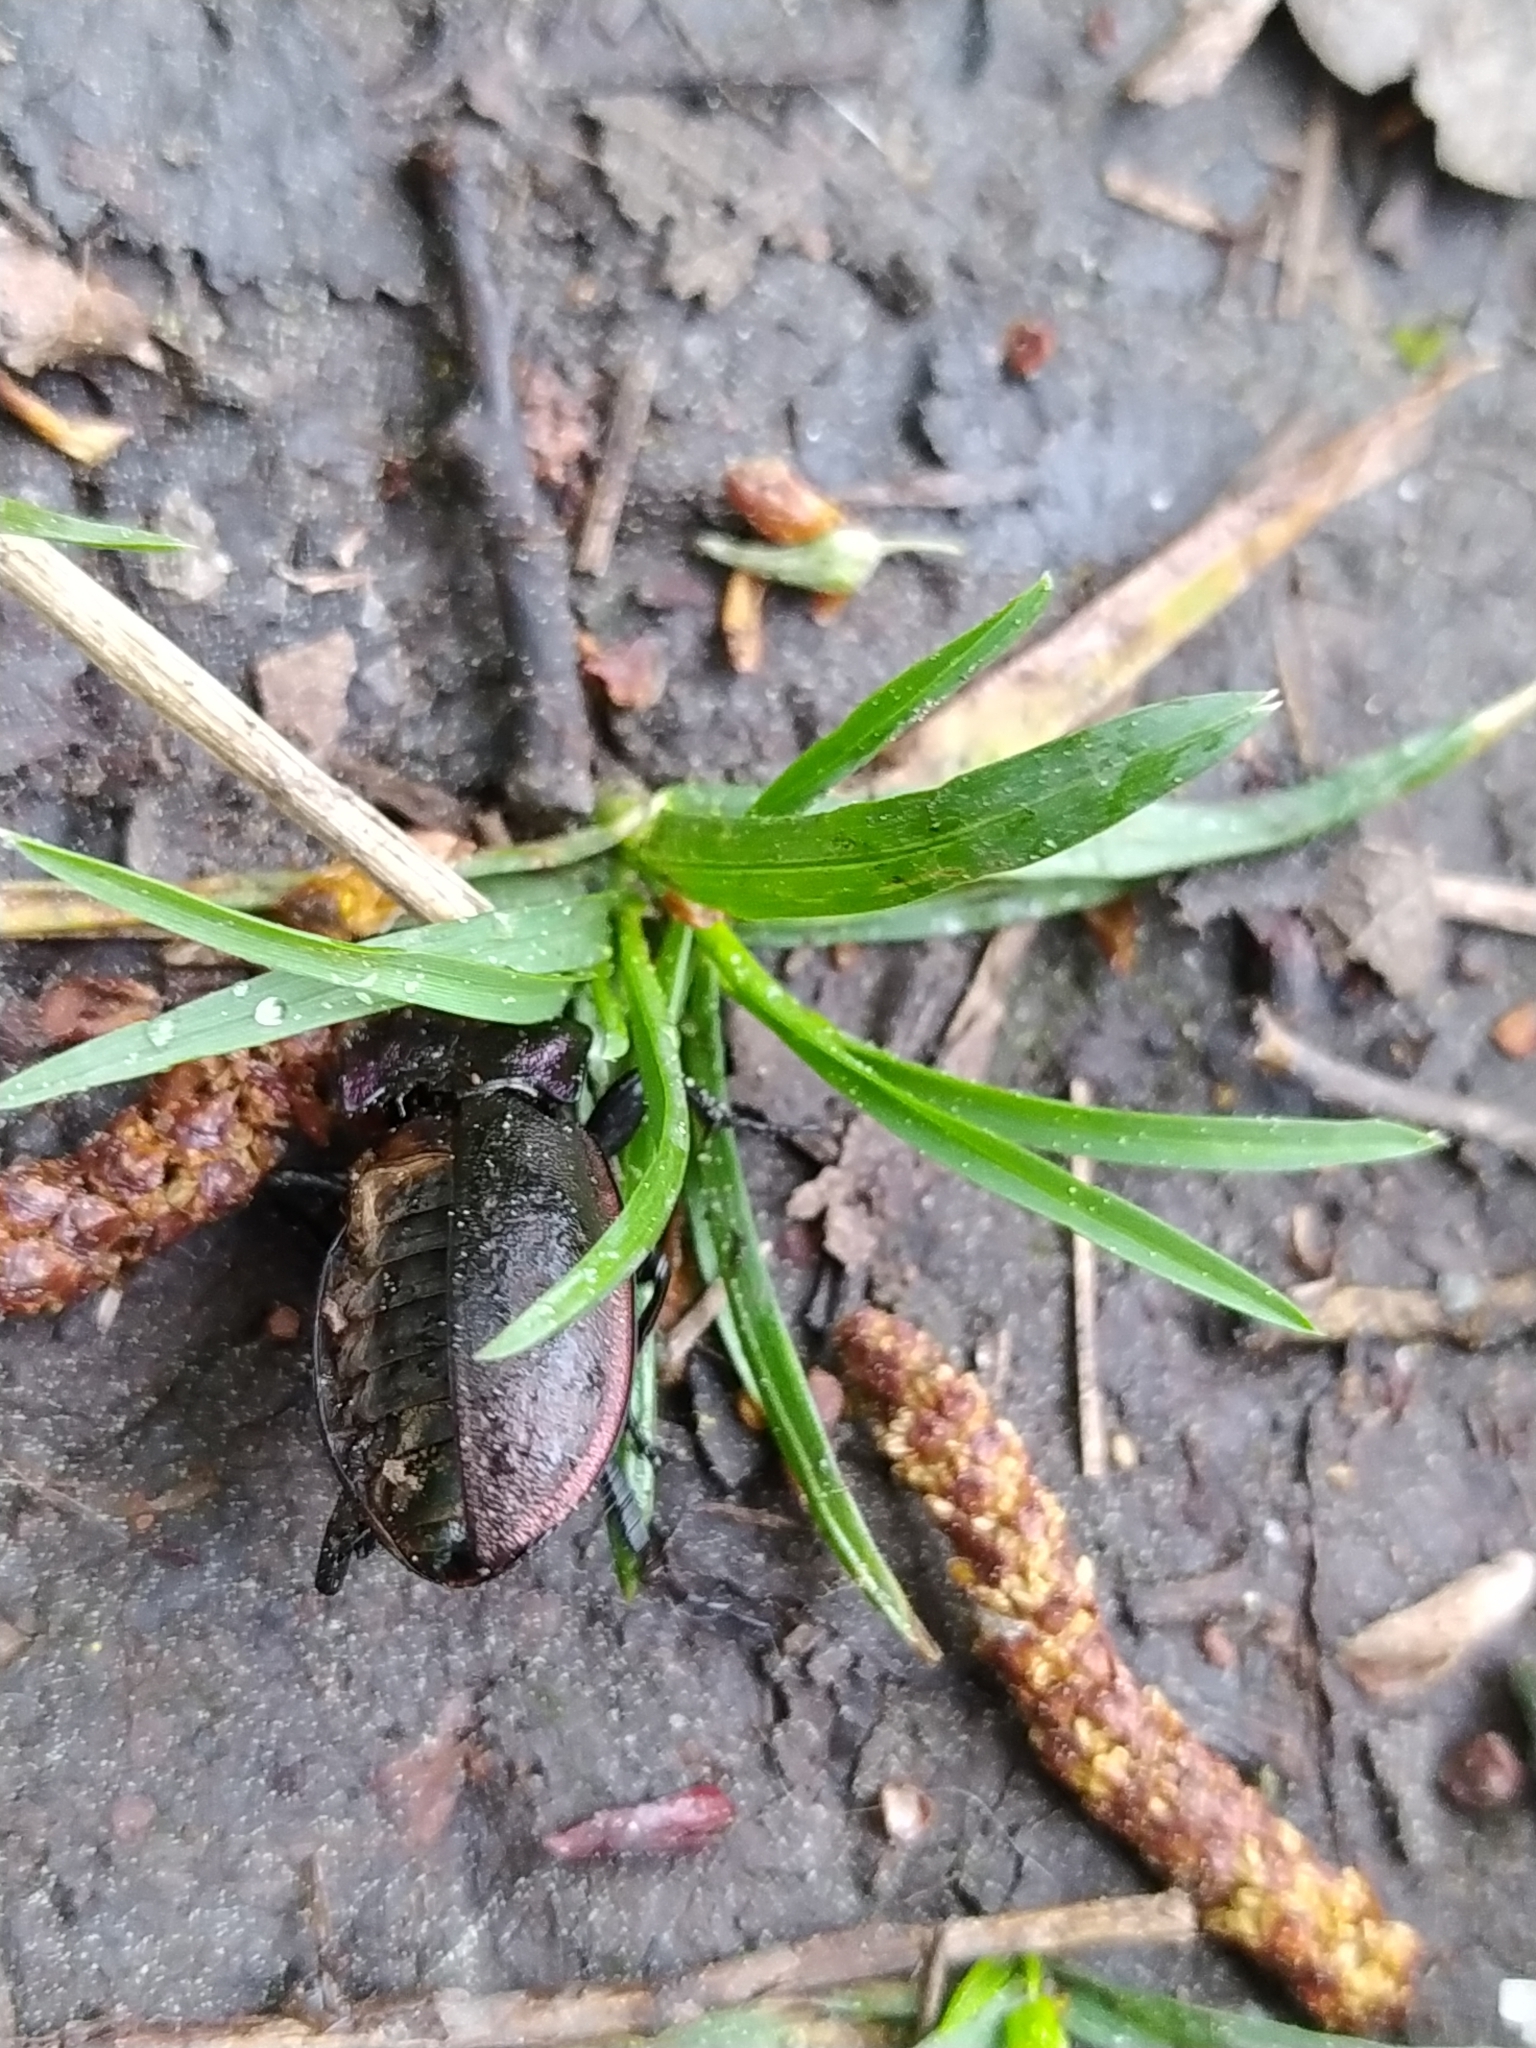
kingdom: Animalia
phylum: Arthropoda
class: Insecta
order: Coleoptera
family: Carabidae
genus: Carabus
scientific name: Carabus nemoralis
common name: European ground beetle
